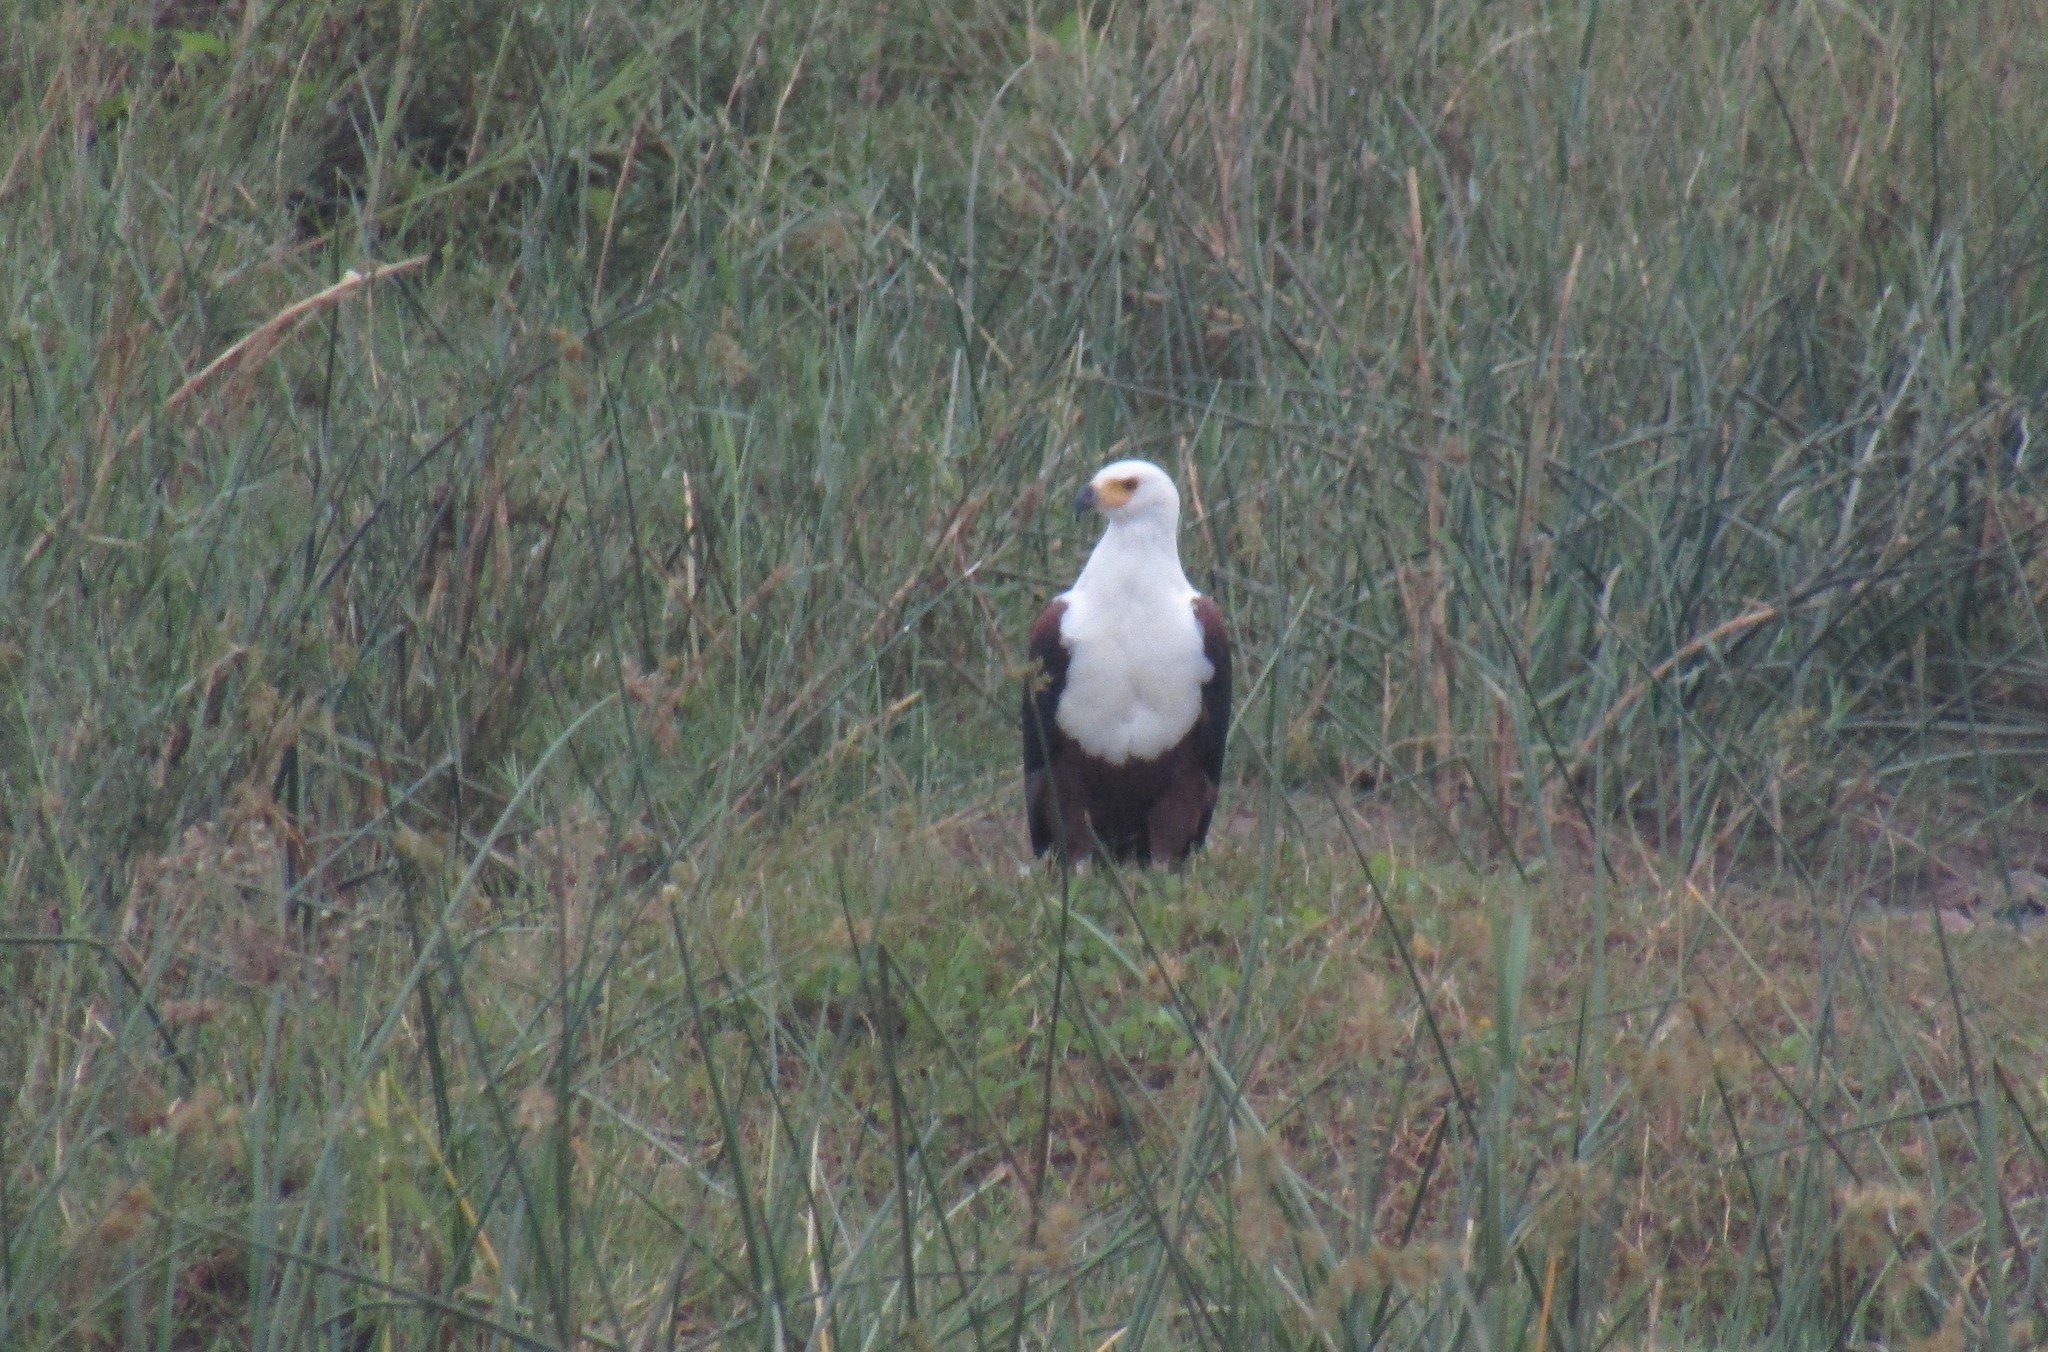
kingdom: Animalia
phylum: Chordata
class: Aves
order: Accipitriformes
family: Accipitridae
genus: Haliaeetus
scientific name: Haliaeetus vocifer
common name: African fish eagle
